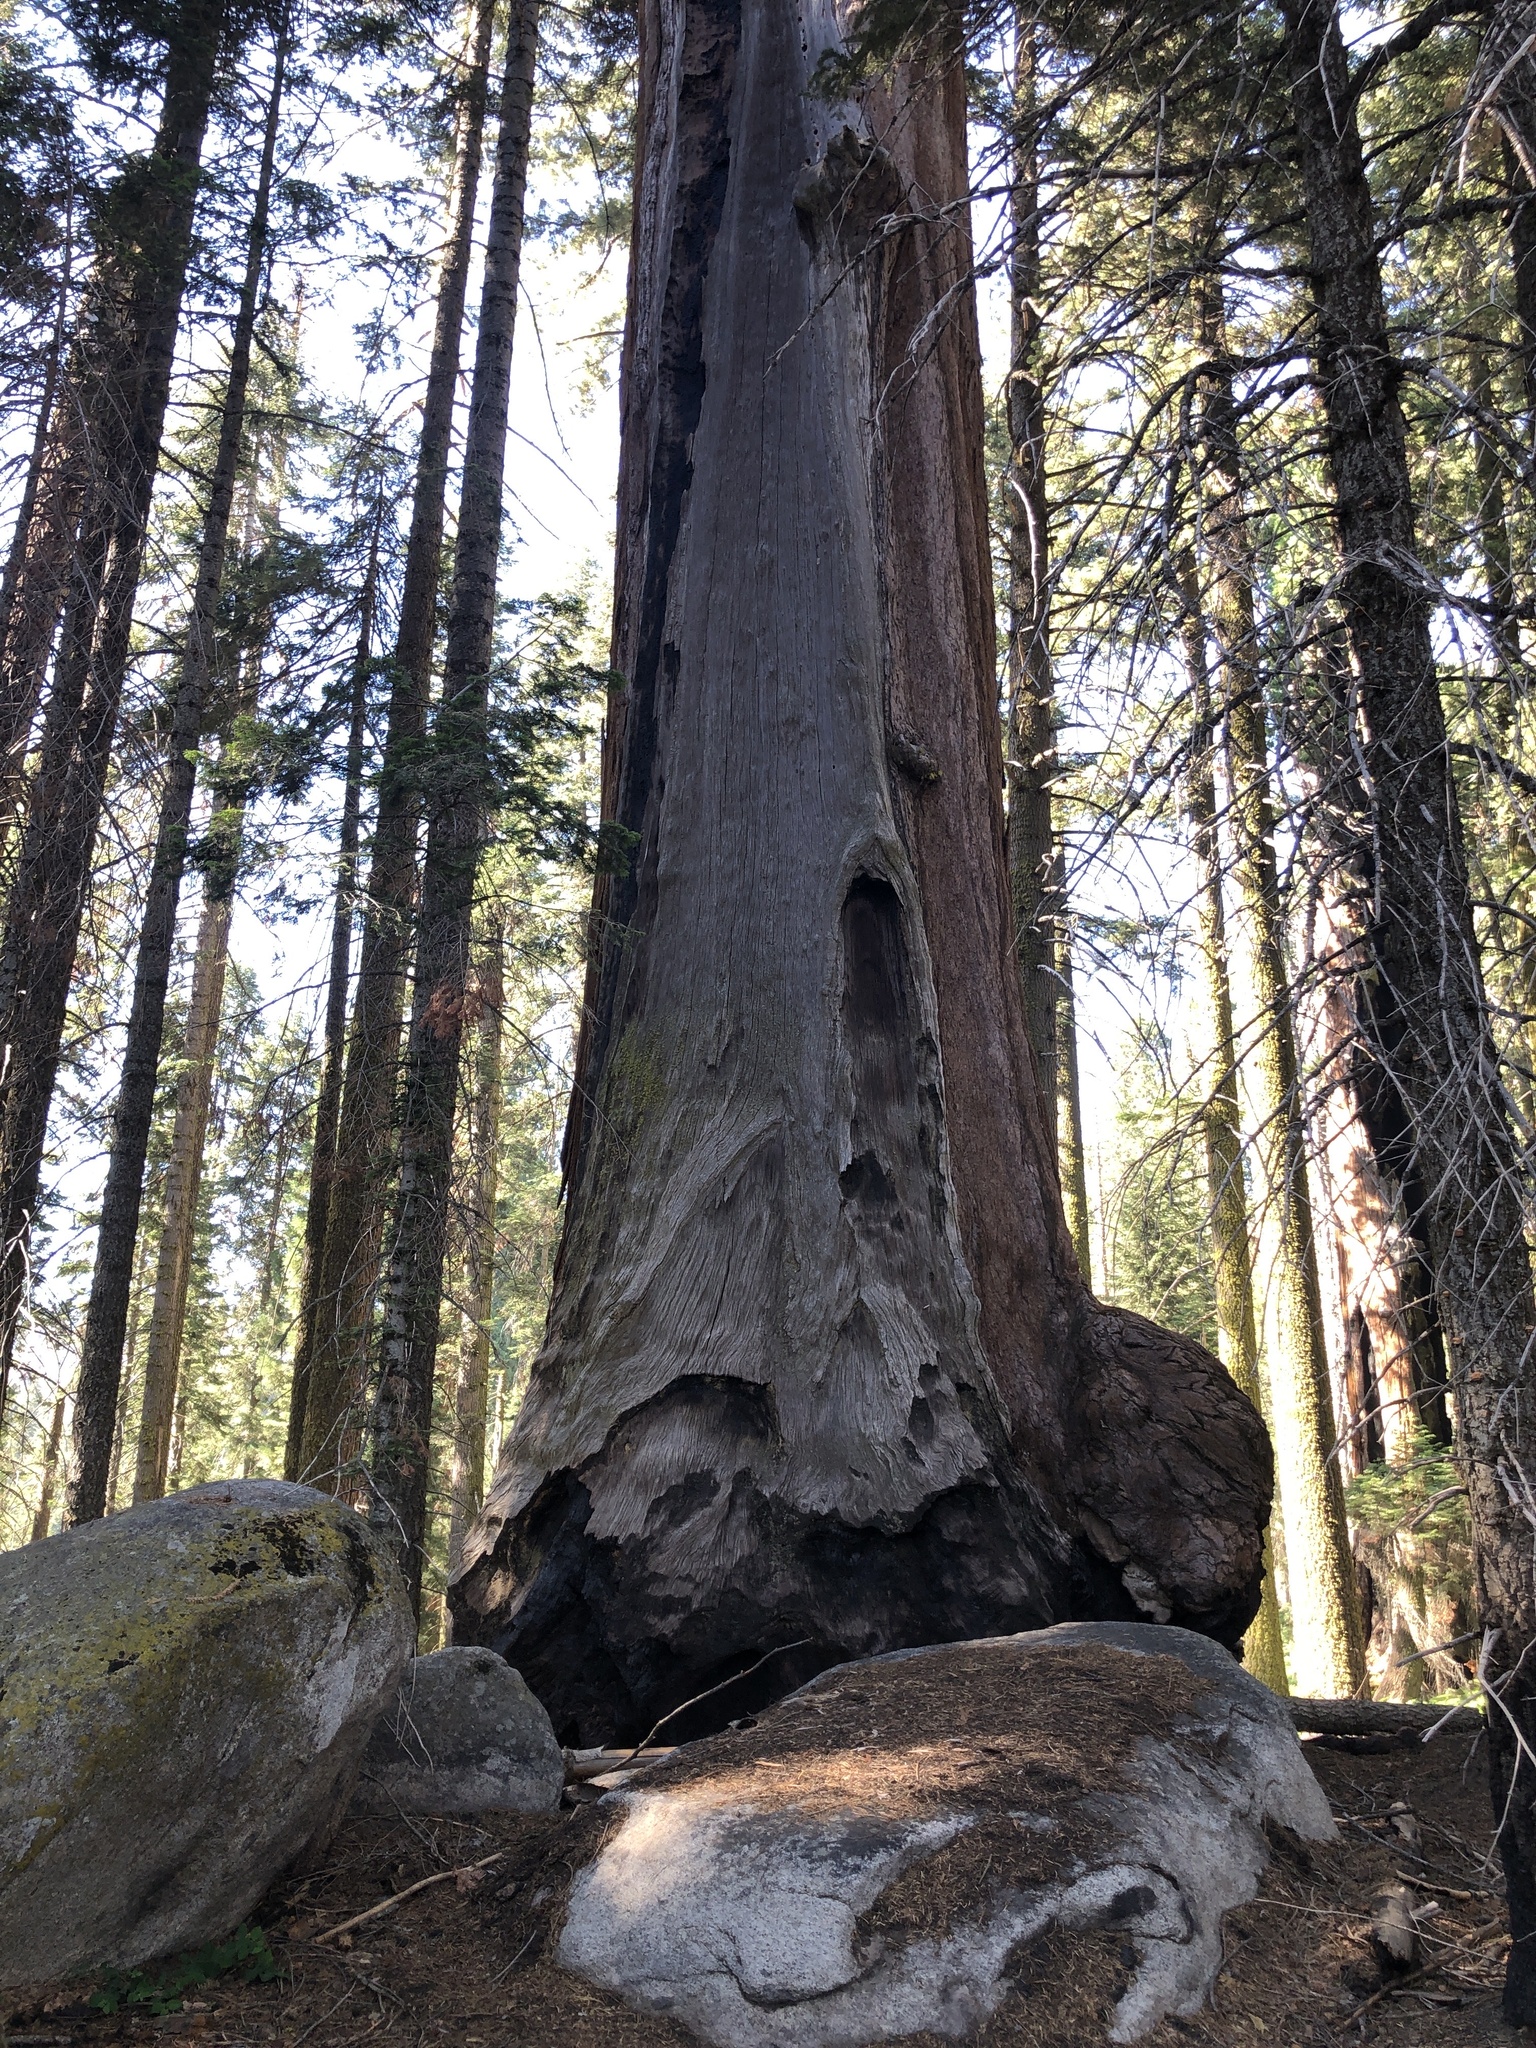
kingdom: Plantae
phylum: Tracheophyta
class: Pinopsida
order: Pinales
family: Cupressaceae
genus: Sequoiadendron
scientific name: Sequoiadendron giganteum
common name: Wellingtonia
